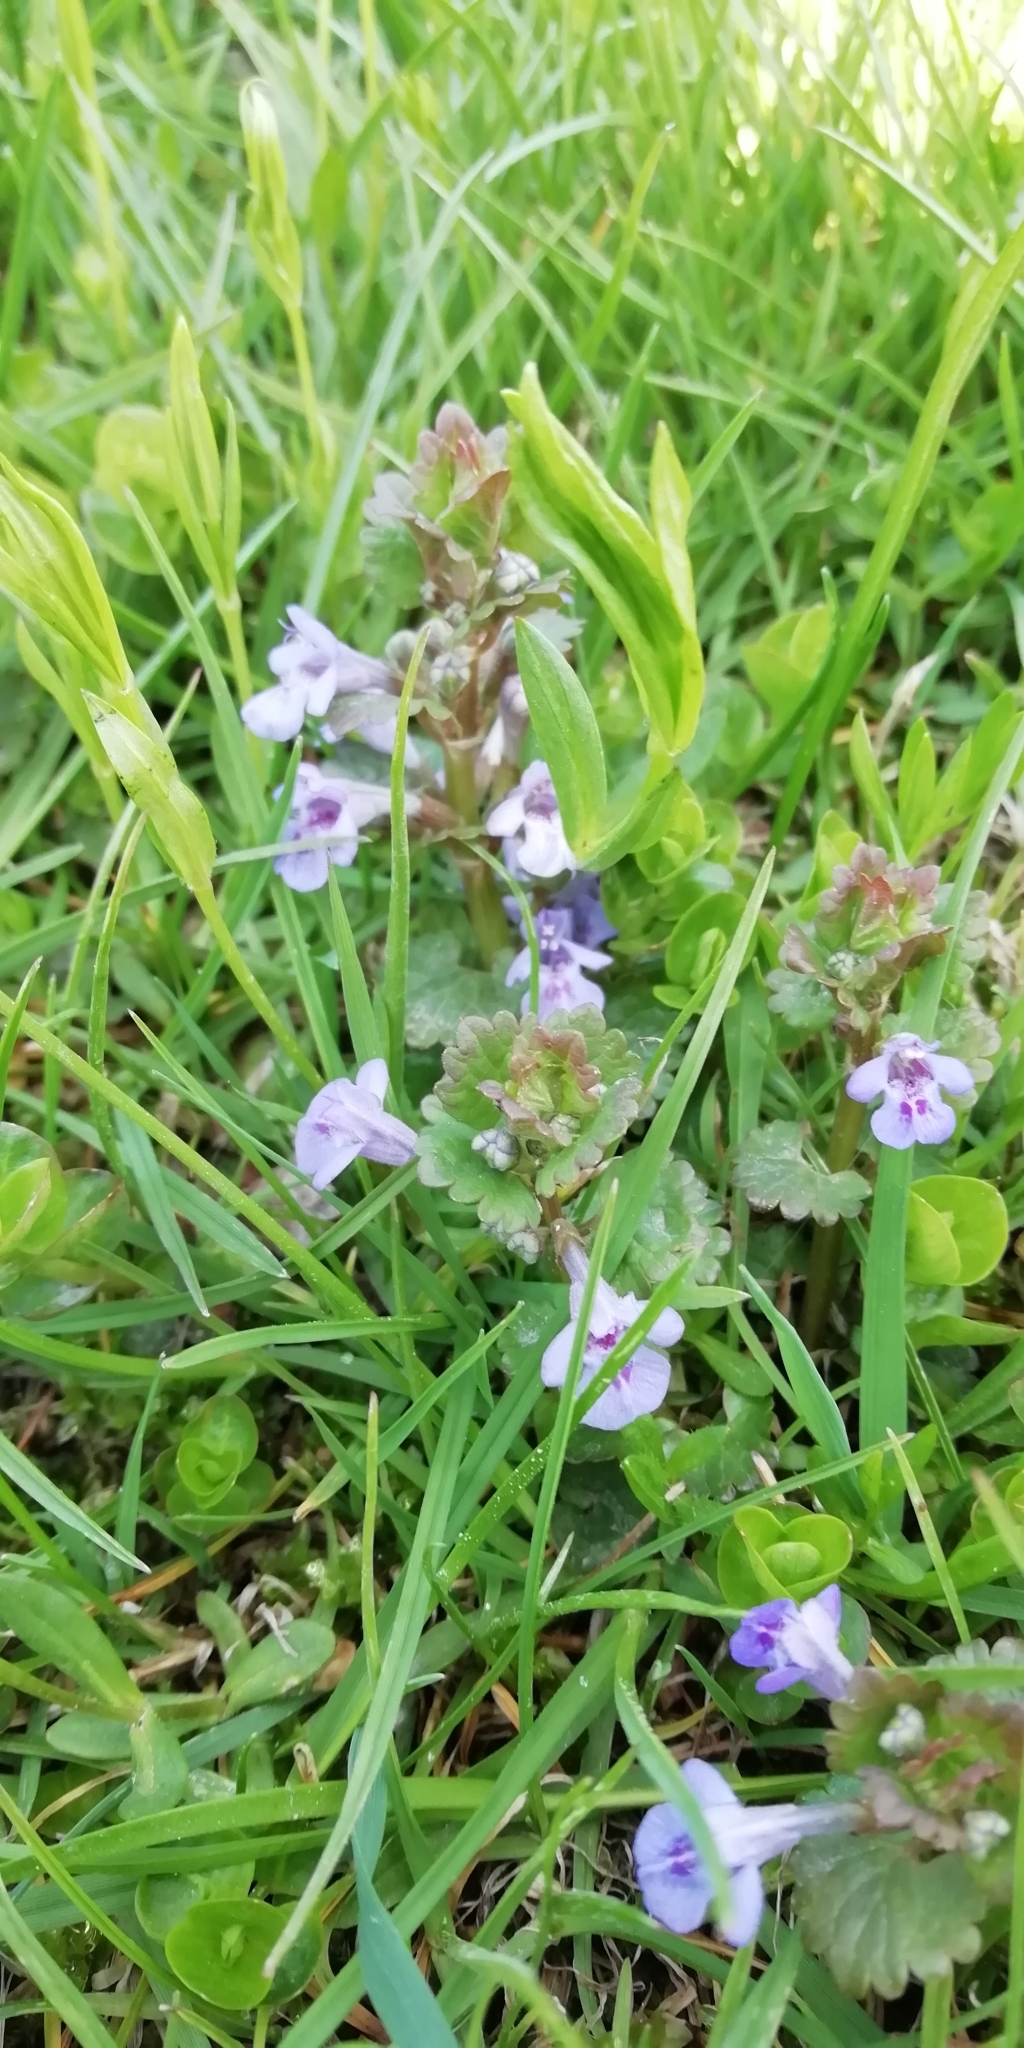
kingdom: Plantae
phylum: Tracheophyta
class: Magnoliopsida
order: Lamiales
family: Lamiaceae
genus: Glechoma
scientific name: Glechoma hederacea
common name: Ground ivy
